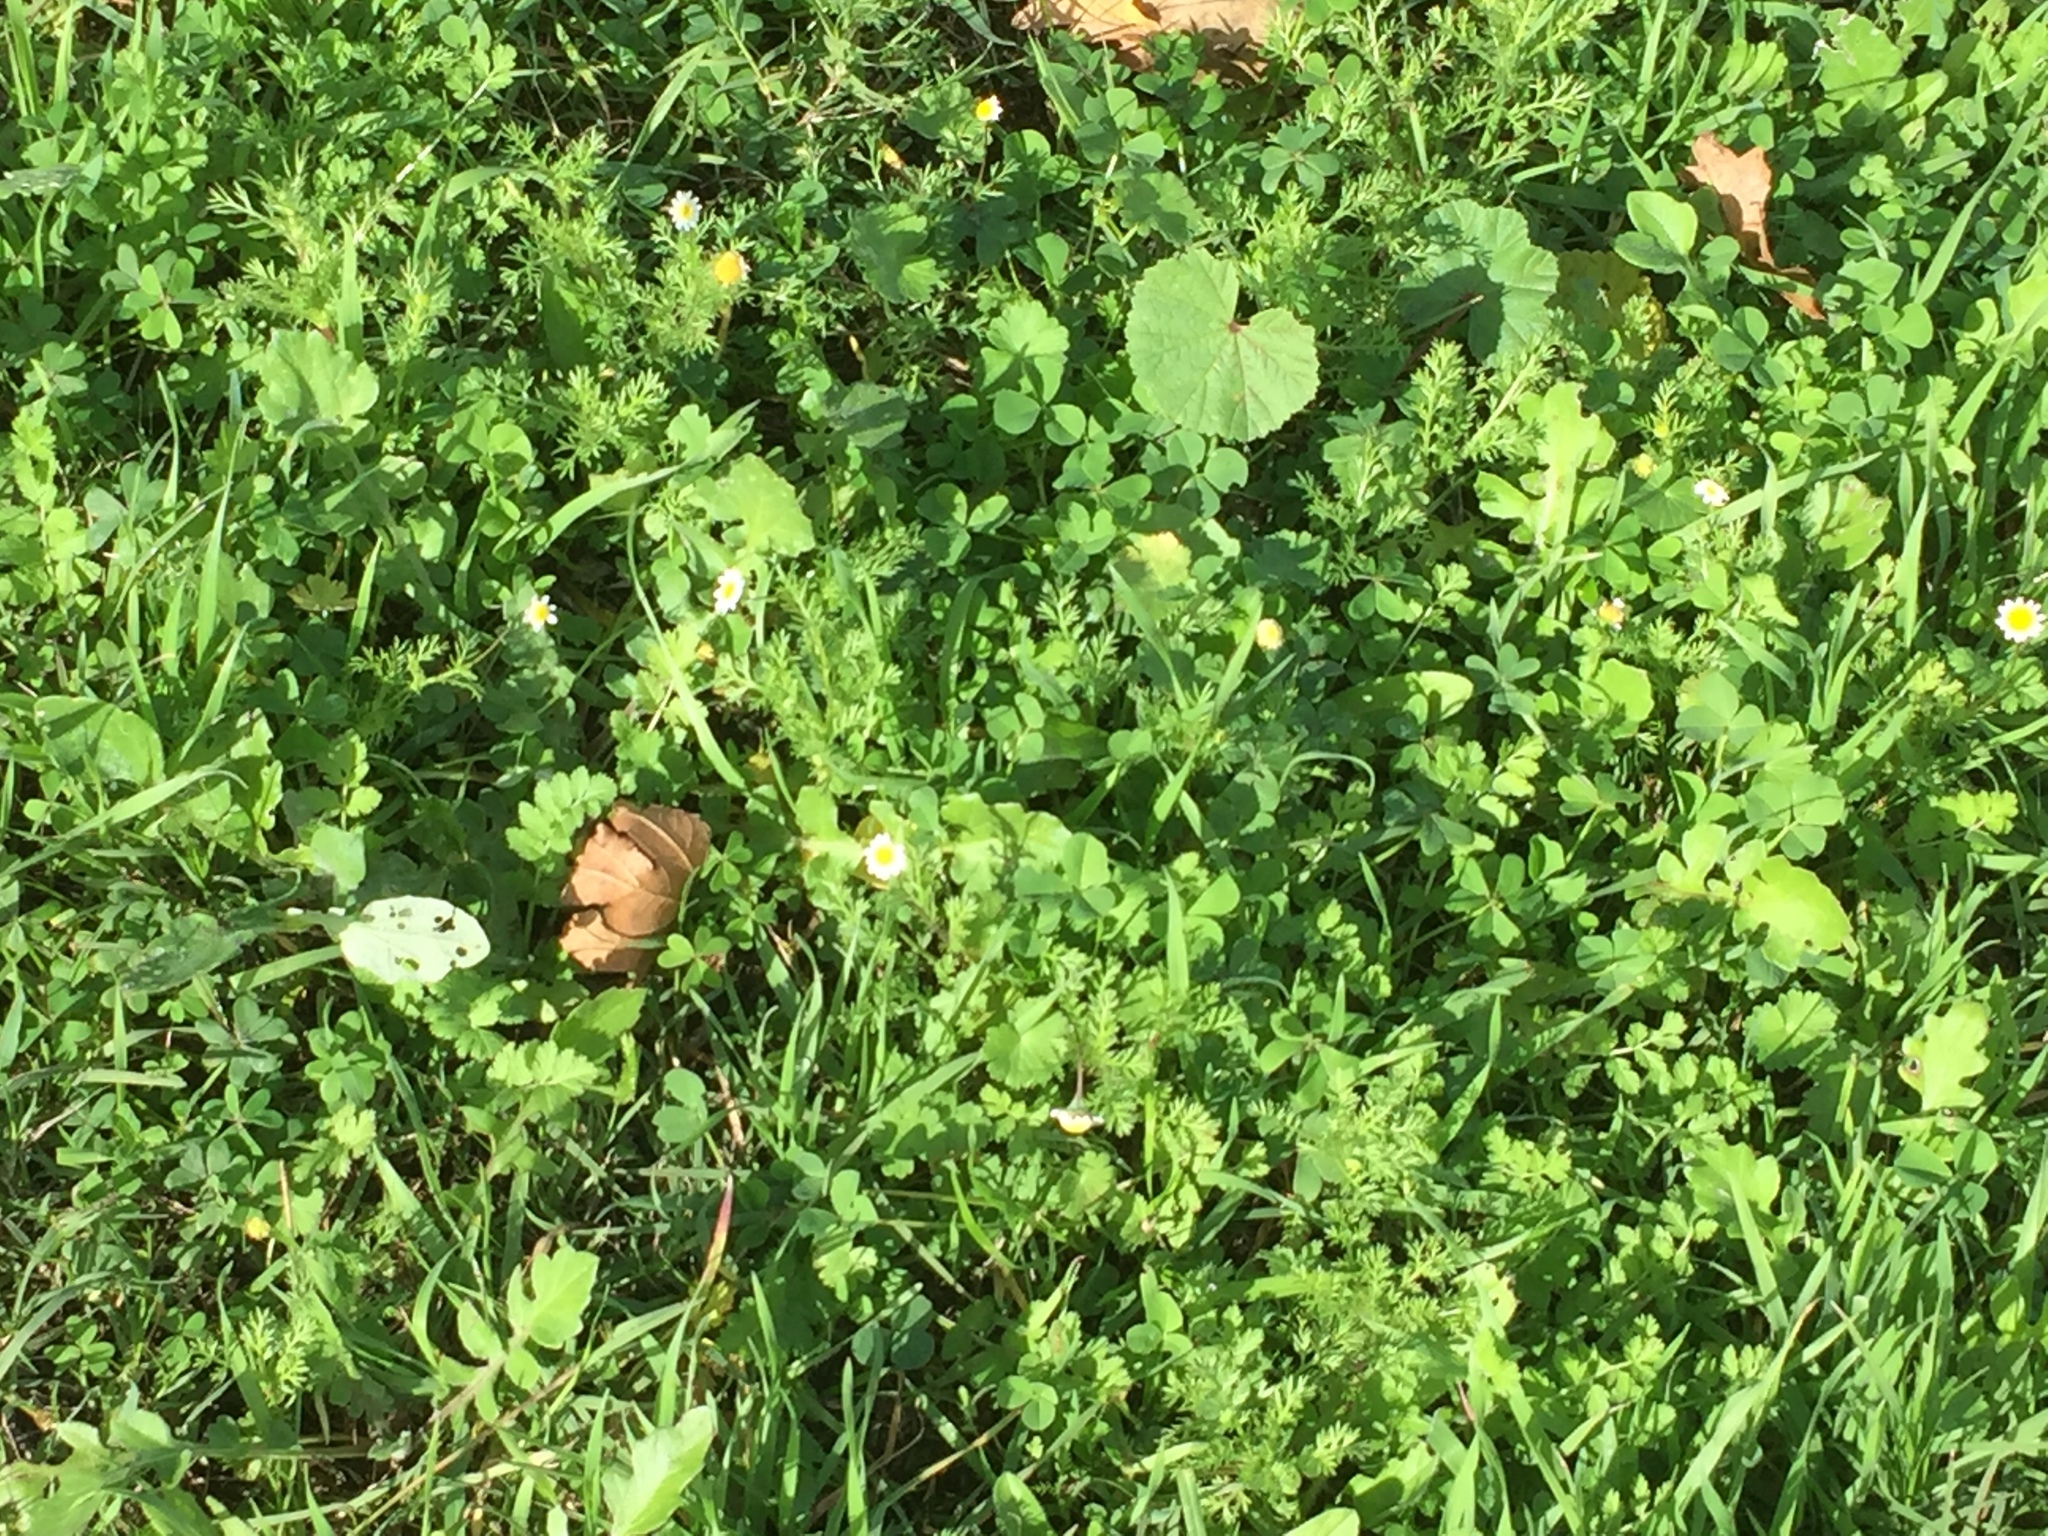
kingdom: Plantae
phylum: Tracheophyta
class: Magnoliopsida
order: Asterales
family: Asteraceae
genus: Cotula
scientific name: Cotula turbinata
